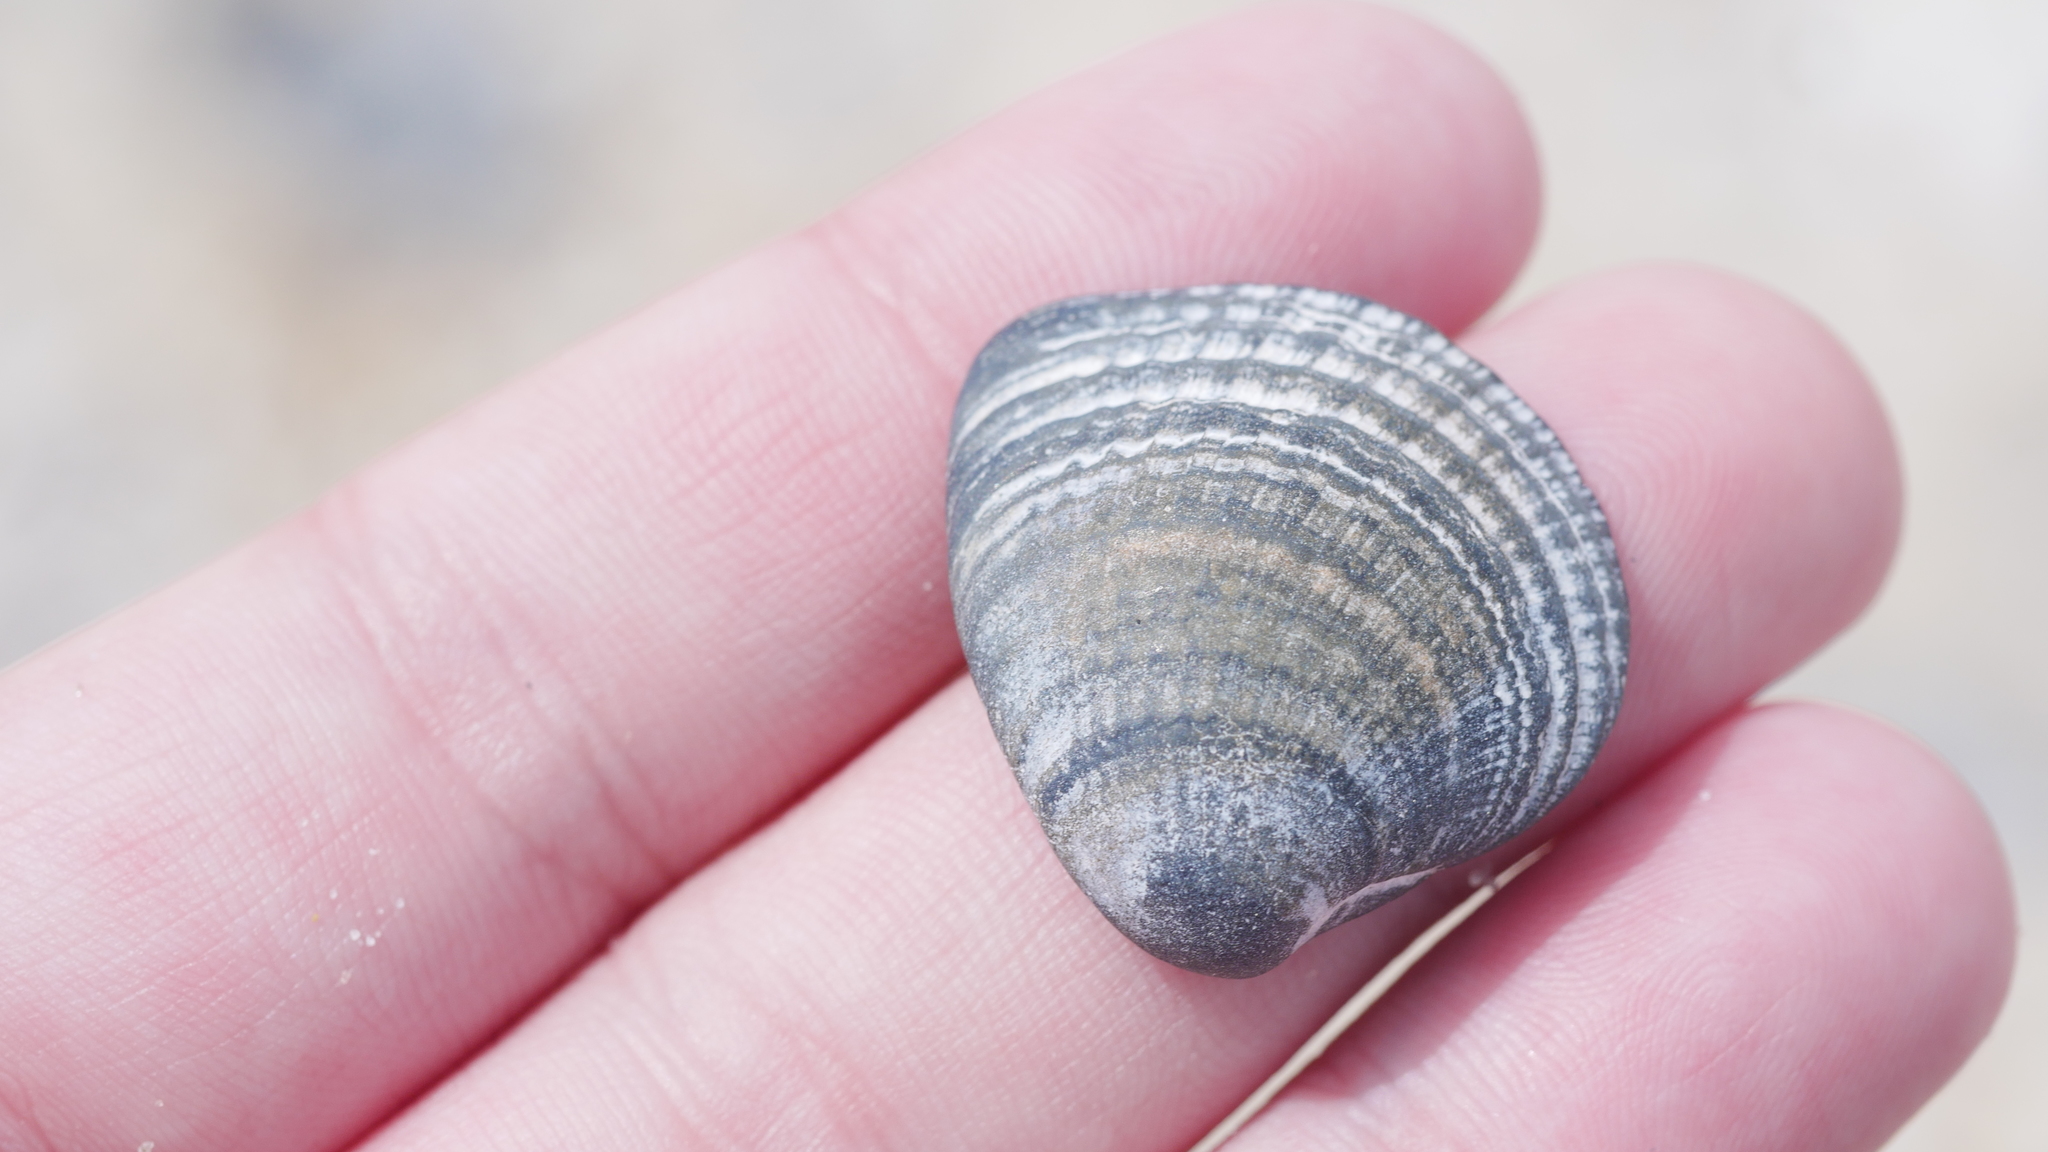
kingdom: Animalia
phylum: Mollusca
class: Bivalvia
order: Venerida
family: Veneridae
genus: Chione
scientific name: Chione elevata
